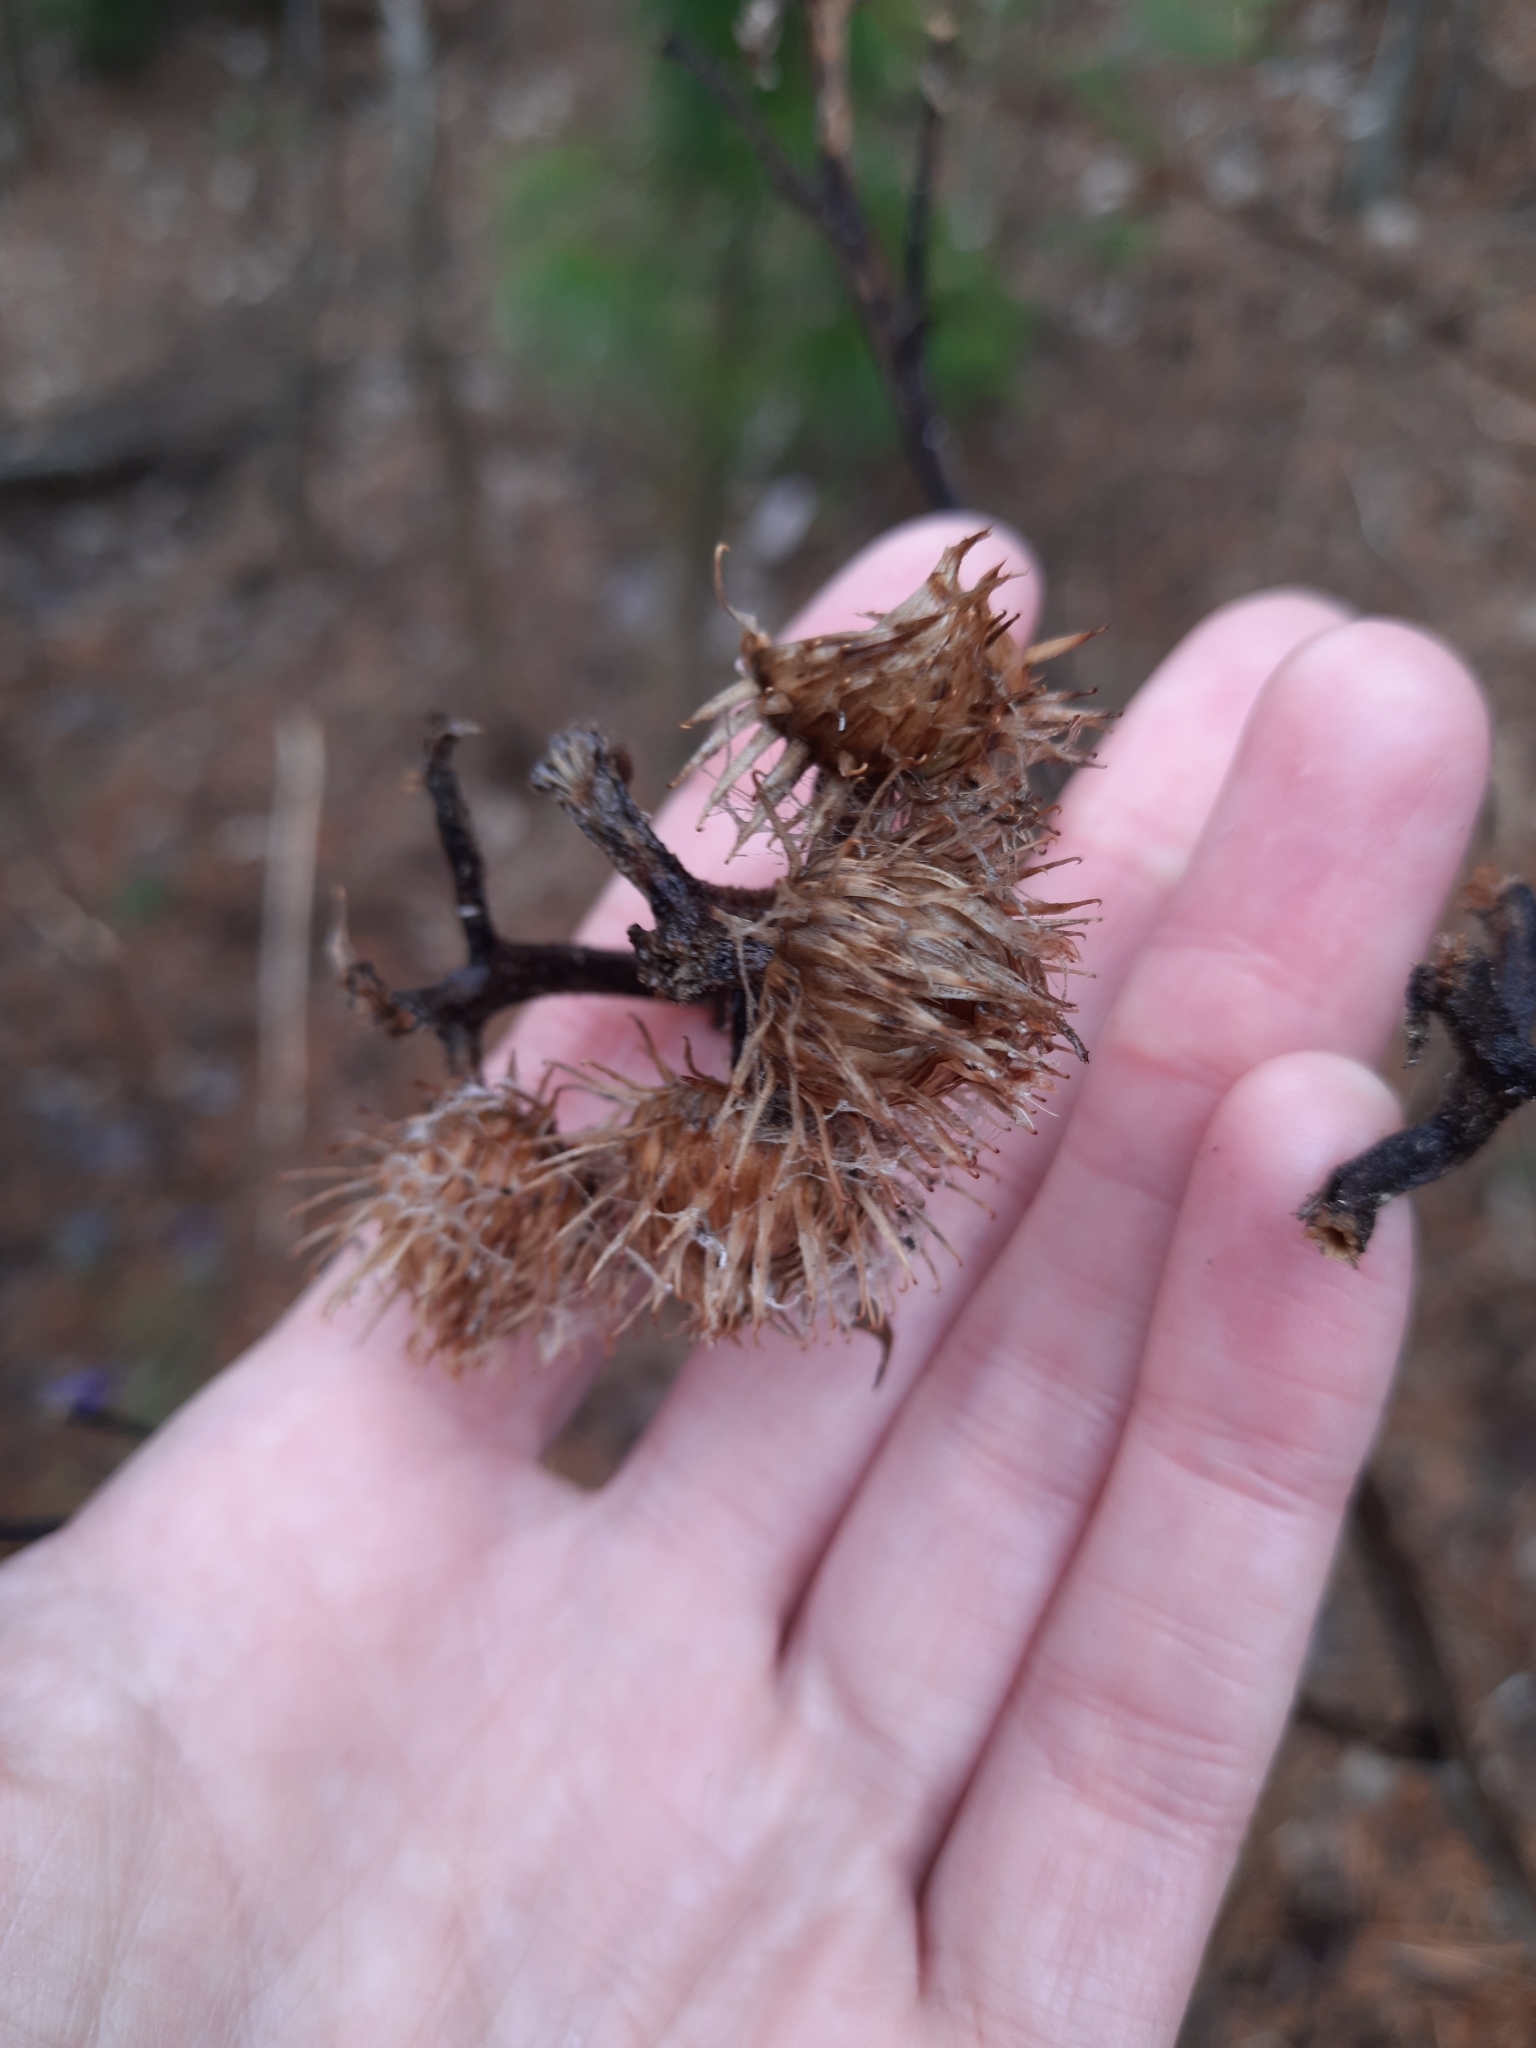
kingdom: Plantae
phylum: Tracheophyta
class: Magnoliopsida
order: Asterales
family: Asteraceae
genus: Arctium
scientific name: Arctium tomentosum
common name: Woolly burdock
